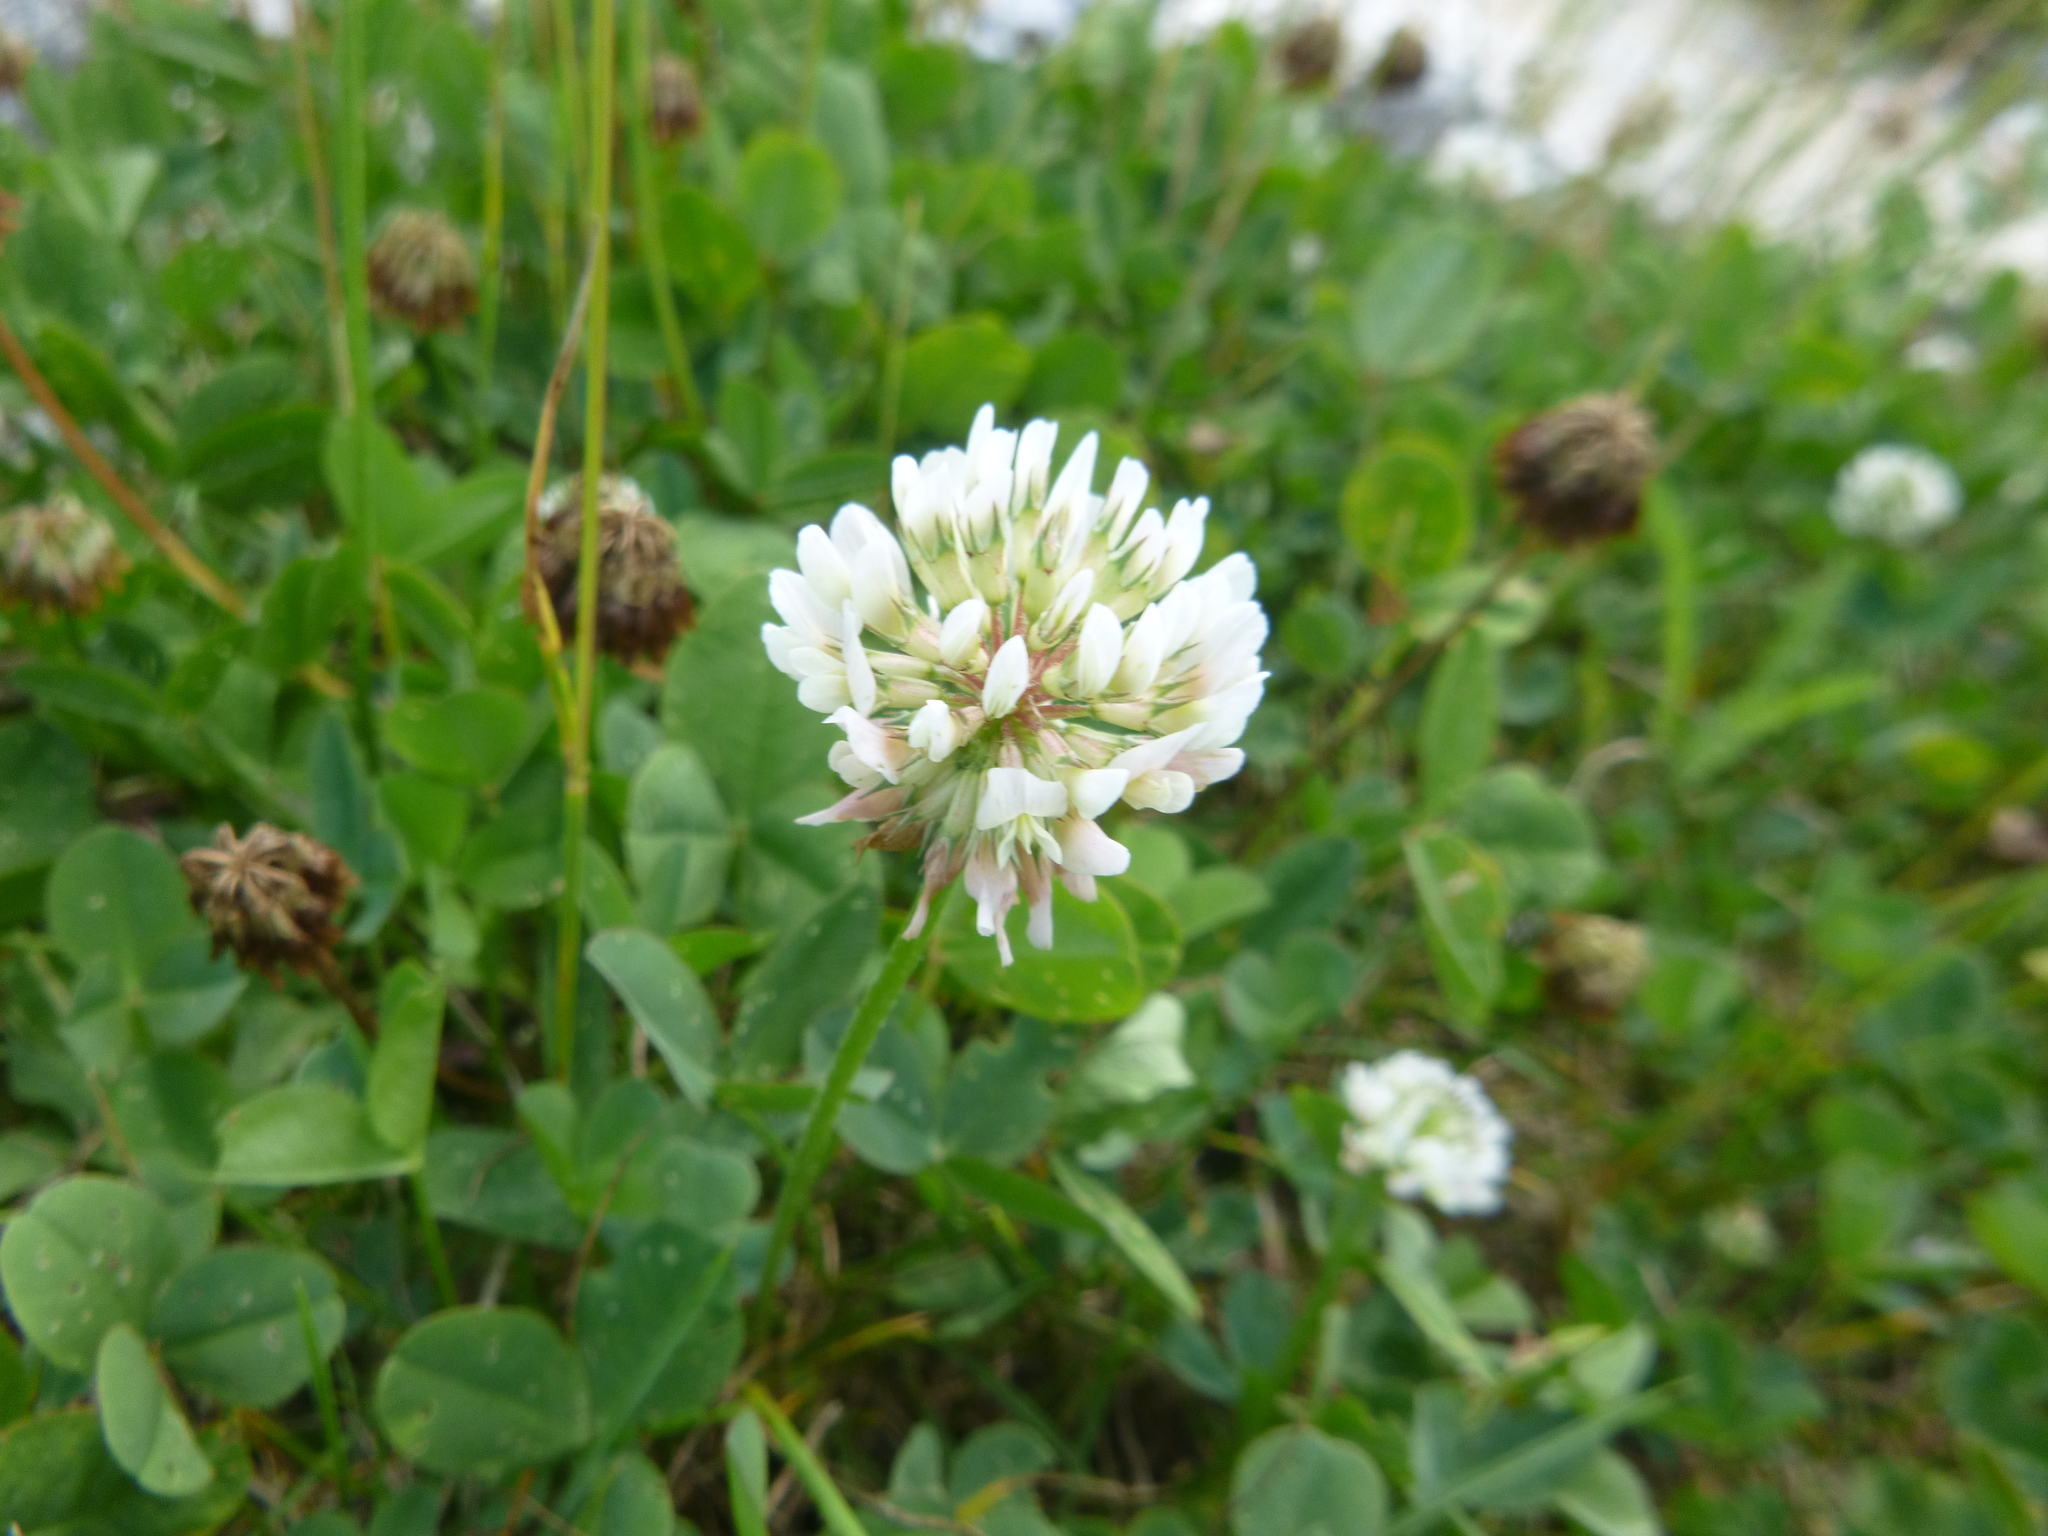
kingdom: Plantae
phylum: Tracheophyta
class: Magnoliopsida
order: Fabales
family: Fabaceae
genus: Trifolium
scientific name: Trifolium repens
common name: White clover
